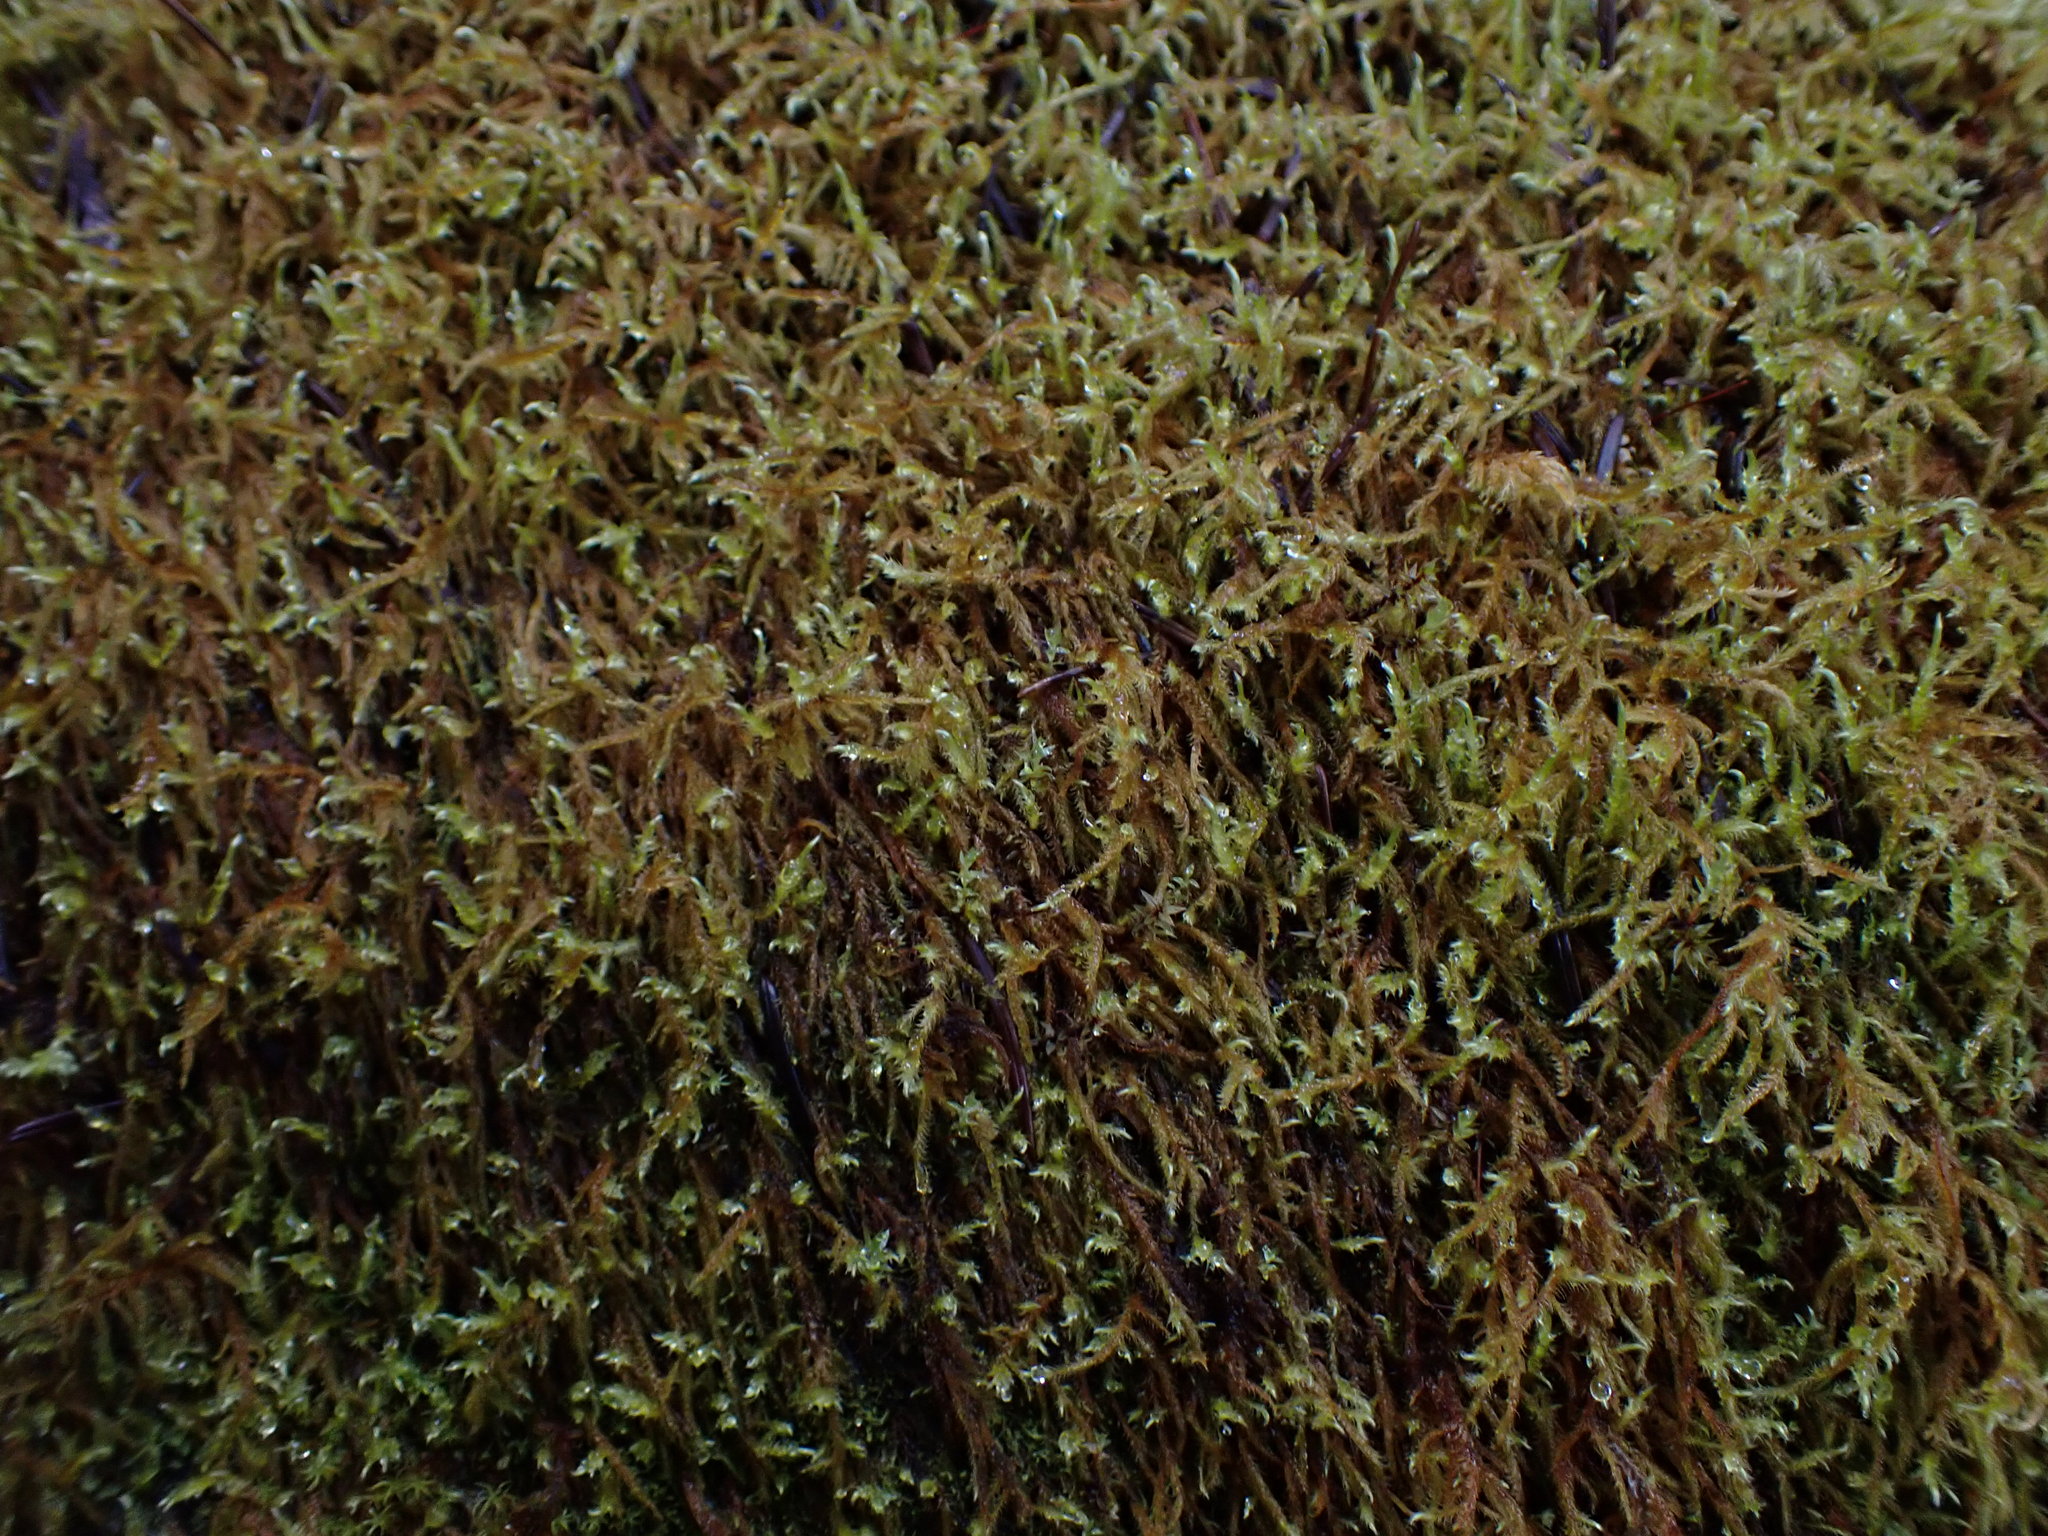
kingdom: Plantae
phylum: Bryophyta
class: Bryopsida
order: Hypnales
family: Amblystegiaceae
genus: Cratoneuron
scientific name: Cratoneuron filicinum
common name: Fern-leaved hook moss
